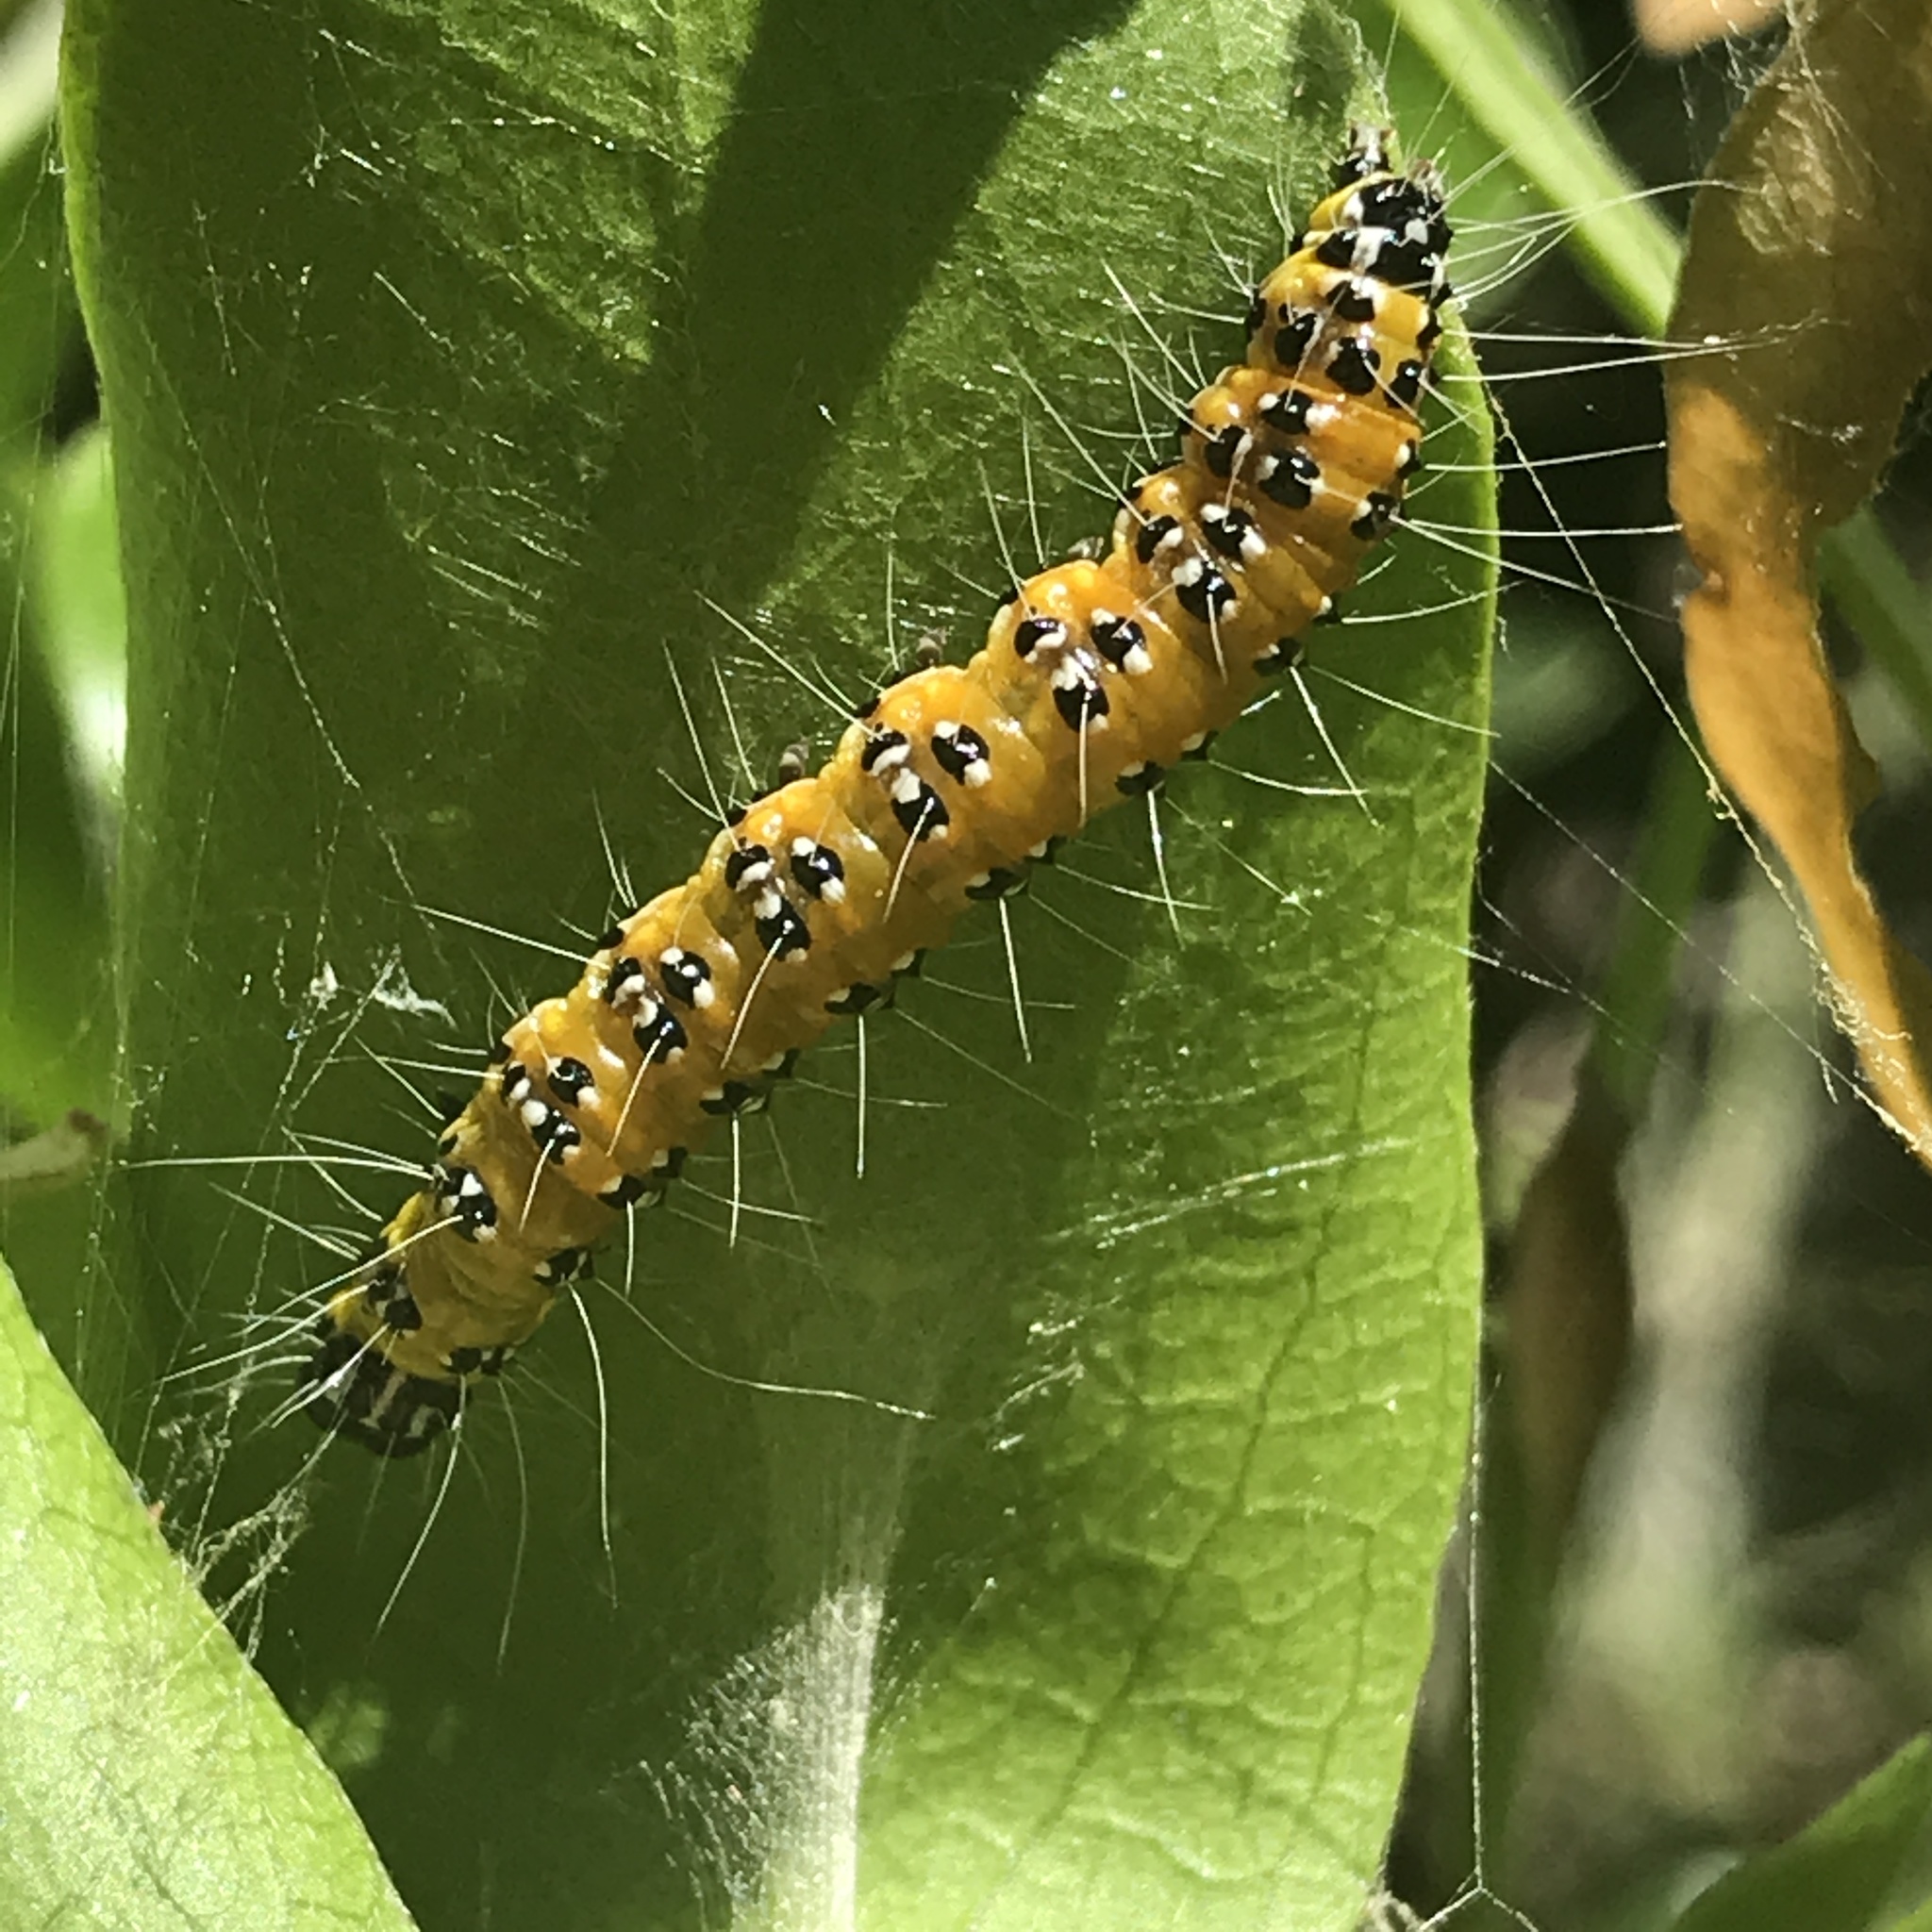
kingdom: Animalia
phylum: Arthropoda
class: Insecta
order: Lepidoptera
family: Crambidae
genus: Uresiphita
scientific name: Uresiphita reversalis
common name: Genista broom moth
